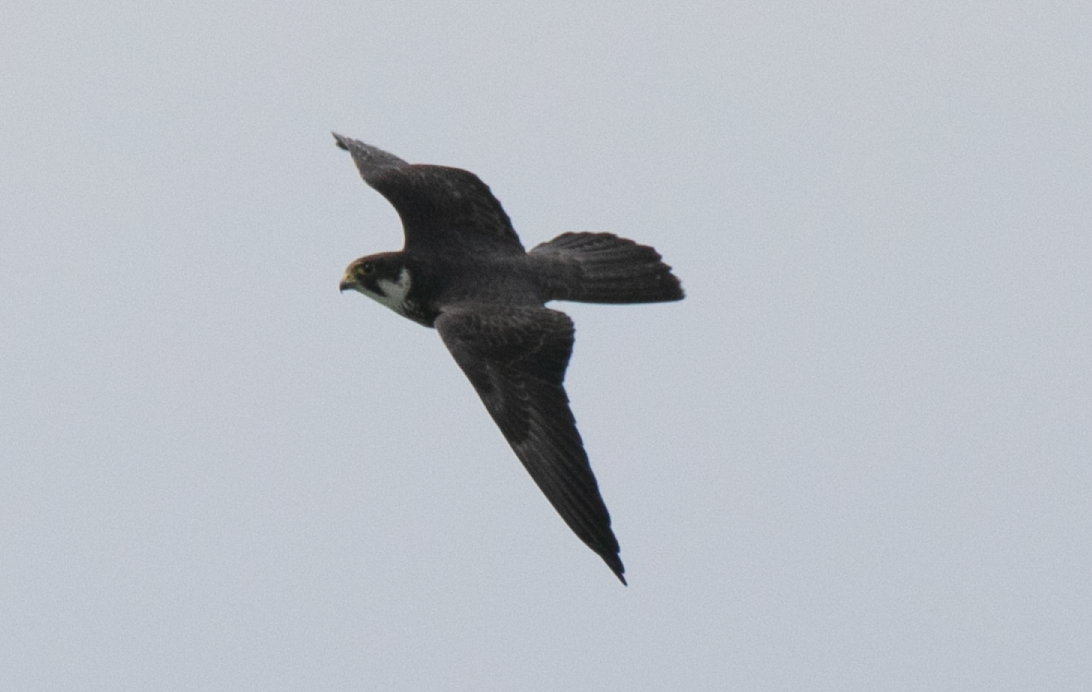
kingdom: Animalia
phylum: Chordata
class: Aves
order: Falconiformes
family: Falconidae
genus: Falco
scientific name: Falco subbuteo
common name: Eurasian hobby
